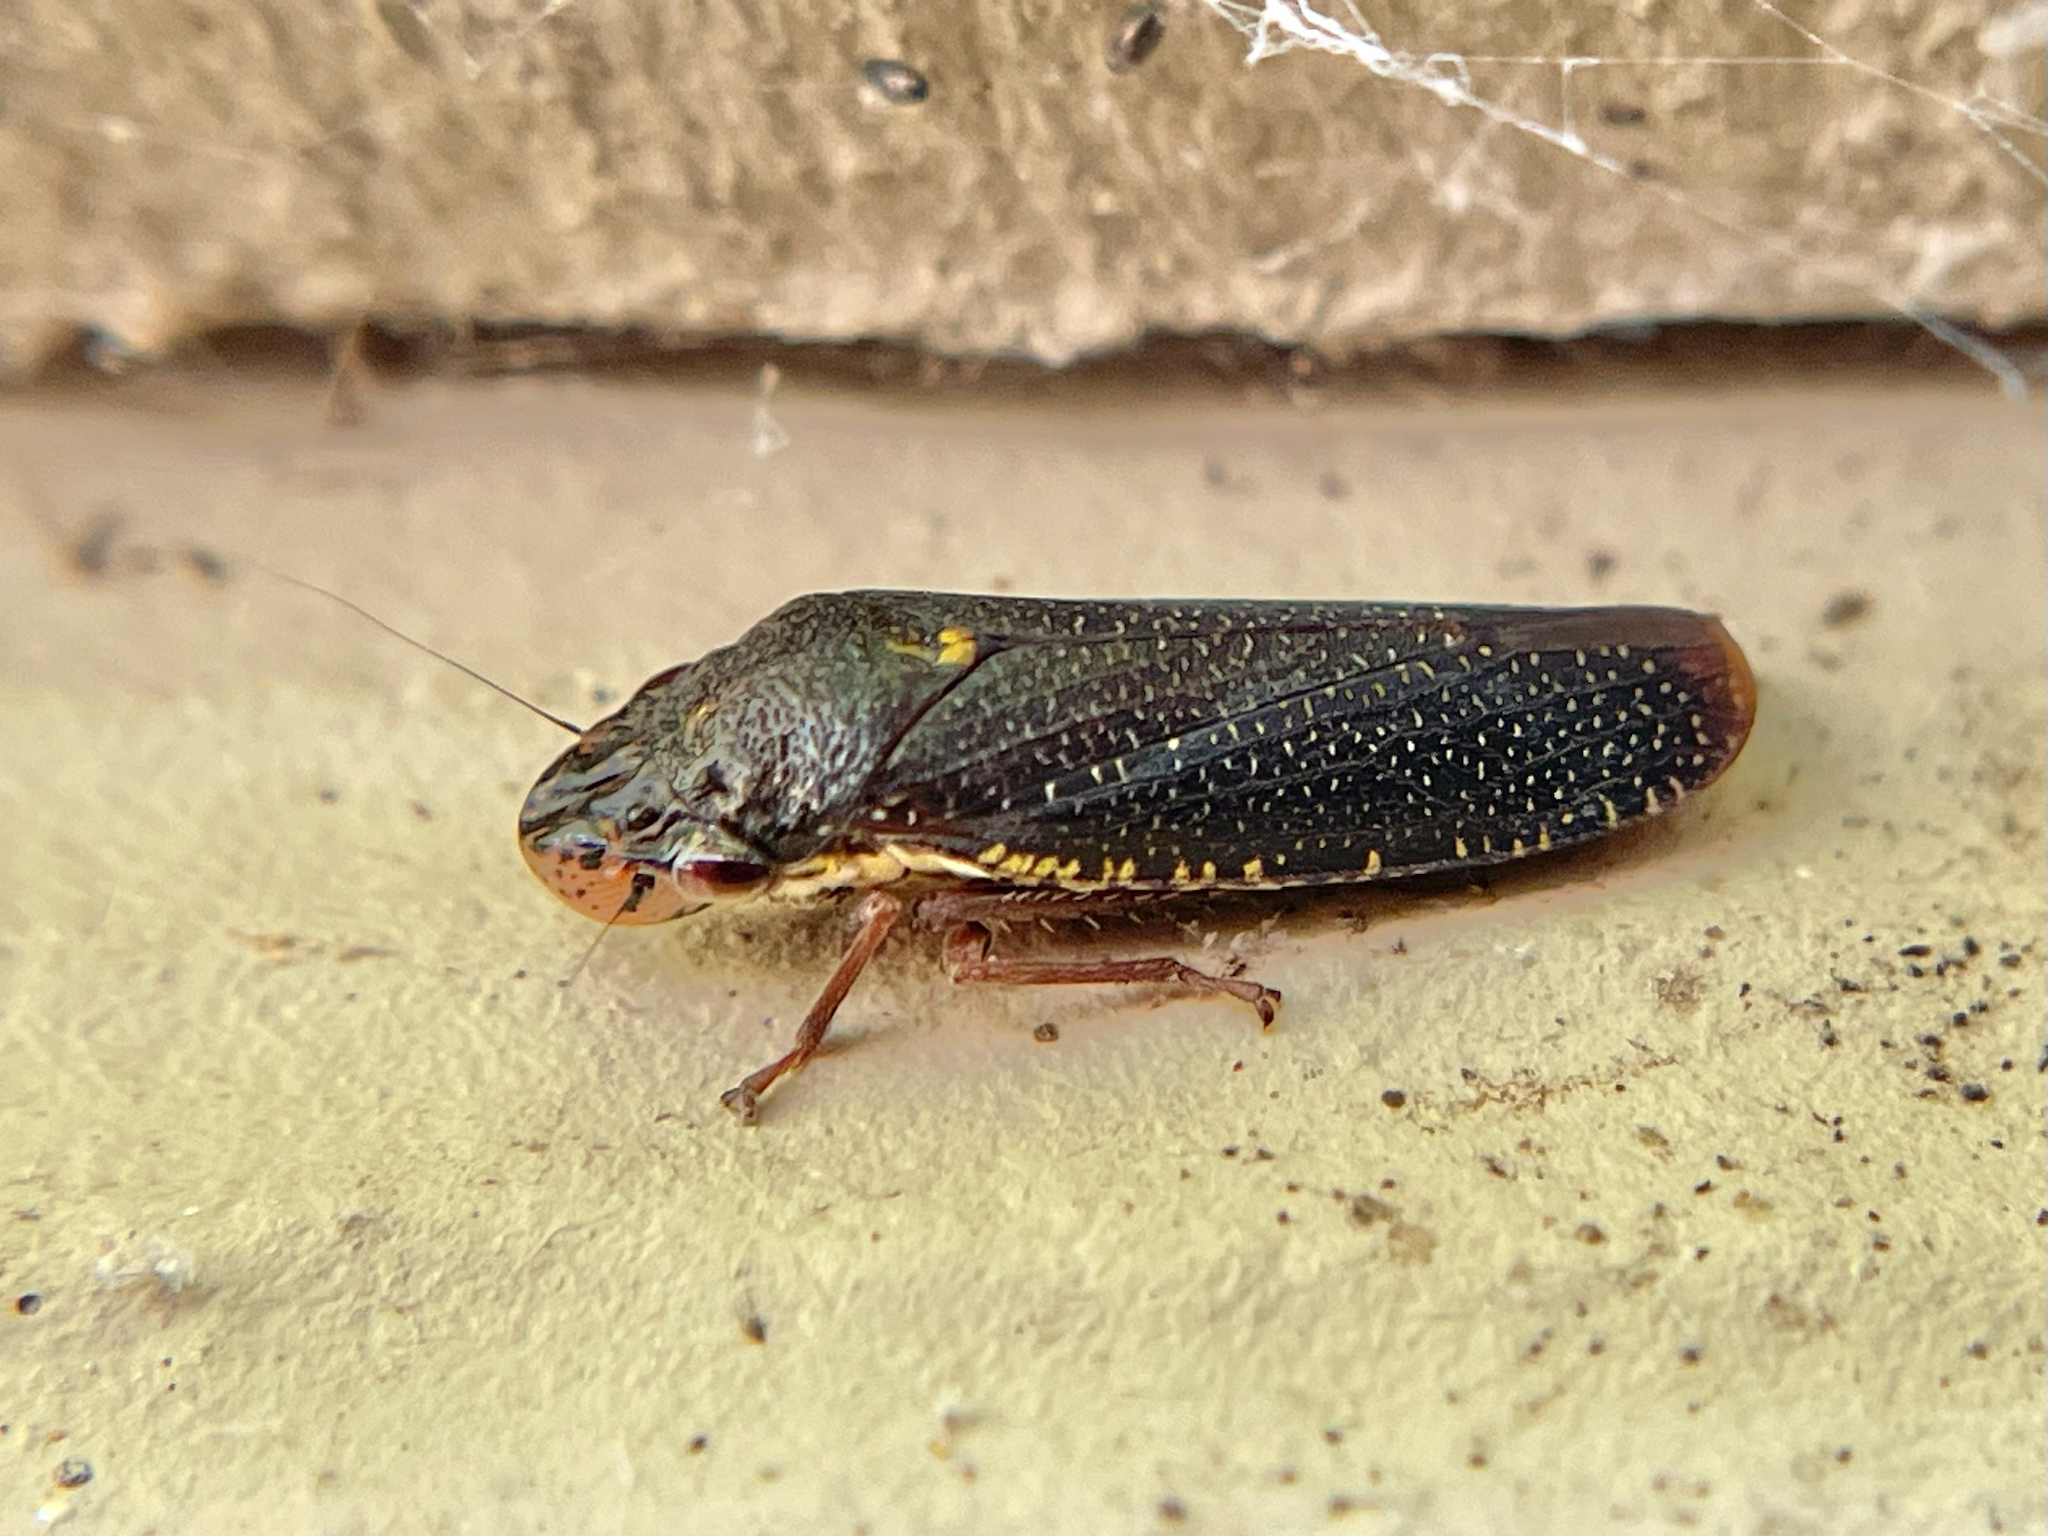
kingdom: Animalia
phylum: Arthropoda
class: Insecta
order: Hemiptera
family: Cicadellidae
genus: Paraulacizes
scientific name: Paraulacizes irrorata
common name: Speckled sharpshooter
